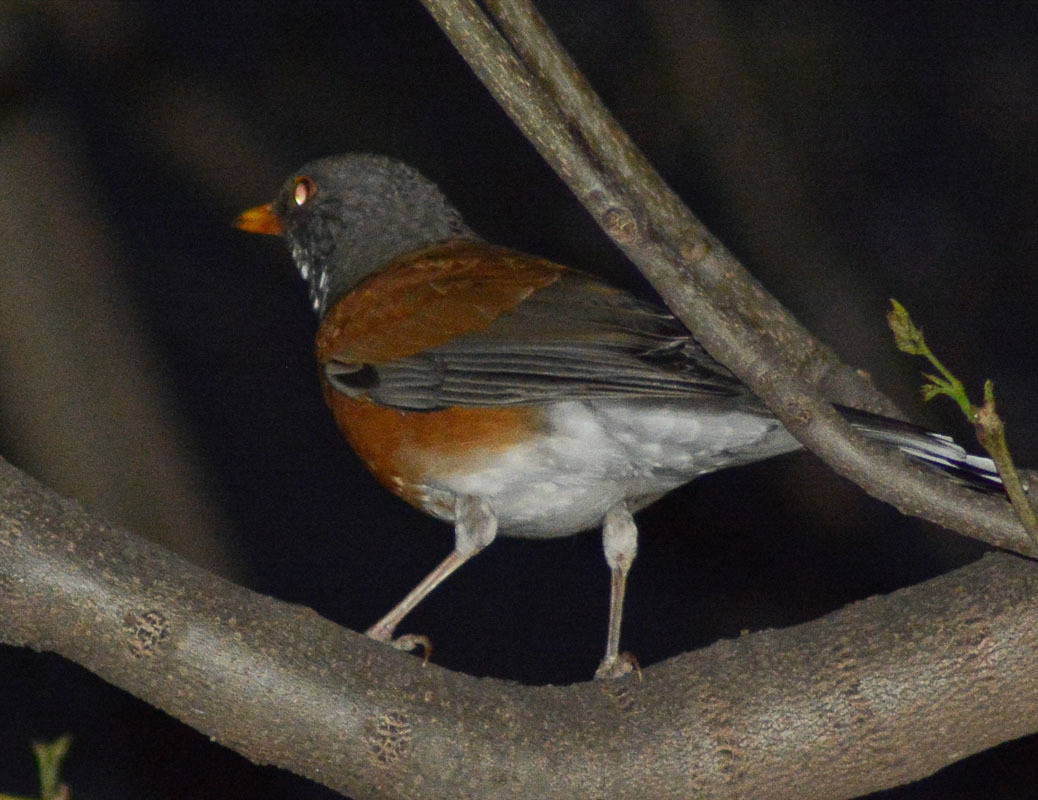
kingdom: Animalia
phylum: Chordata
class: Aves
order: Passeriformes
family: Turdidae
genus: Turdus
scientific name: Turdus rufopalliatus
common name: Rufous-backed robin
